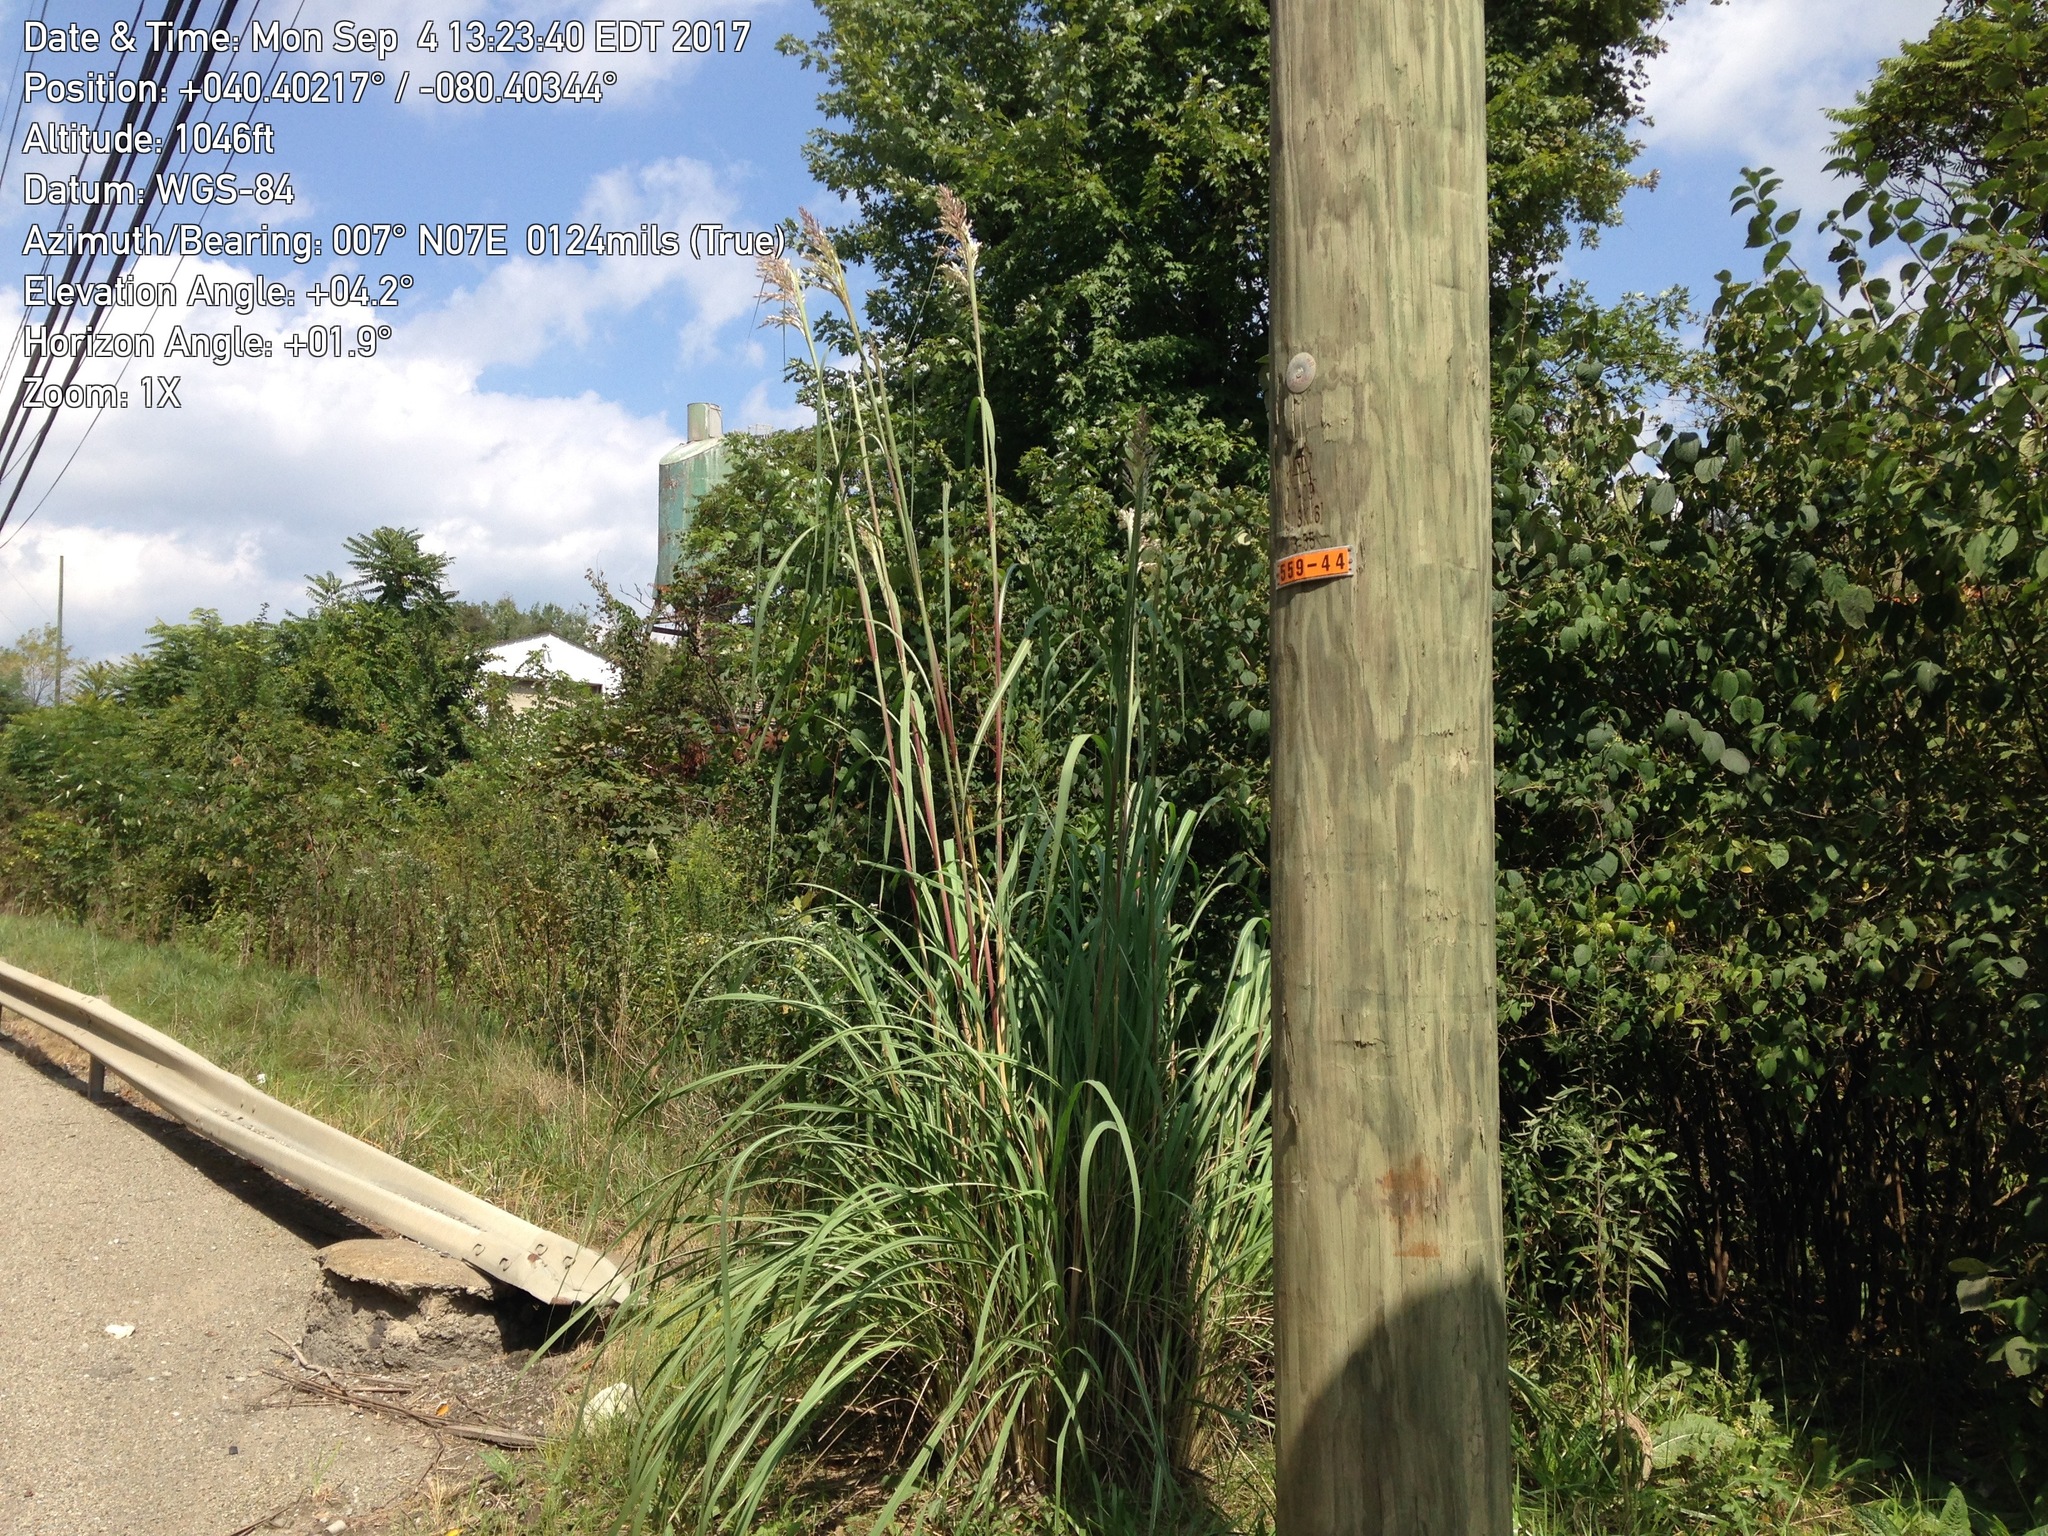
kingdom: Plantae
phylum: Tracheophyta
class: Liliopsida
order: Poales
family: Poaceae
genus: Tripidium
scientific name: Tripidium ravennae
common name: Ravenna grass
